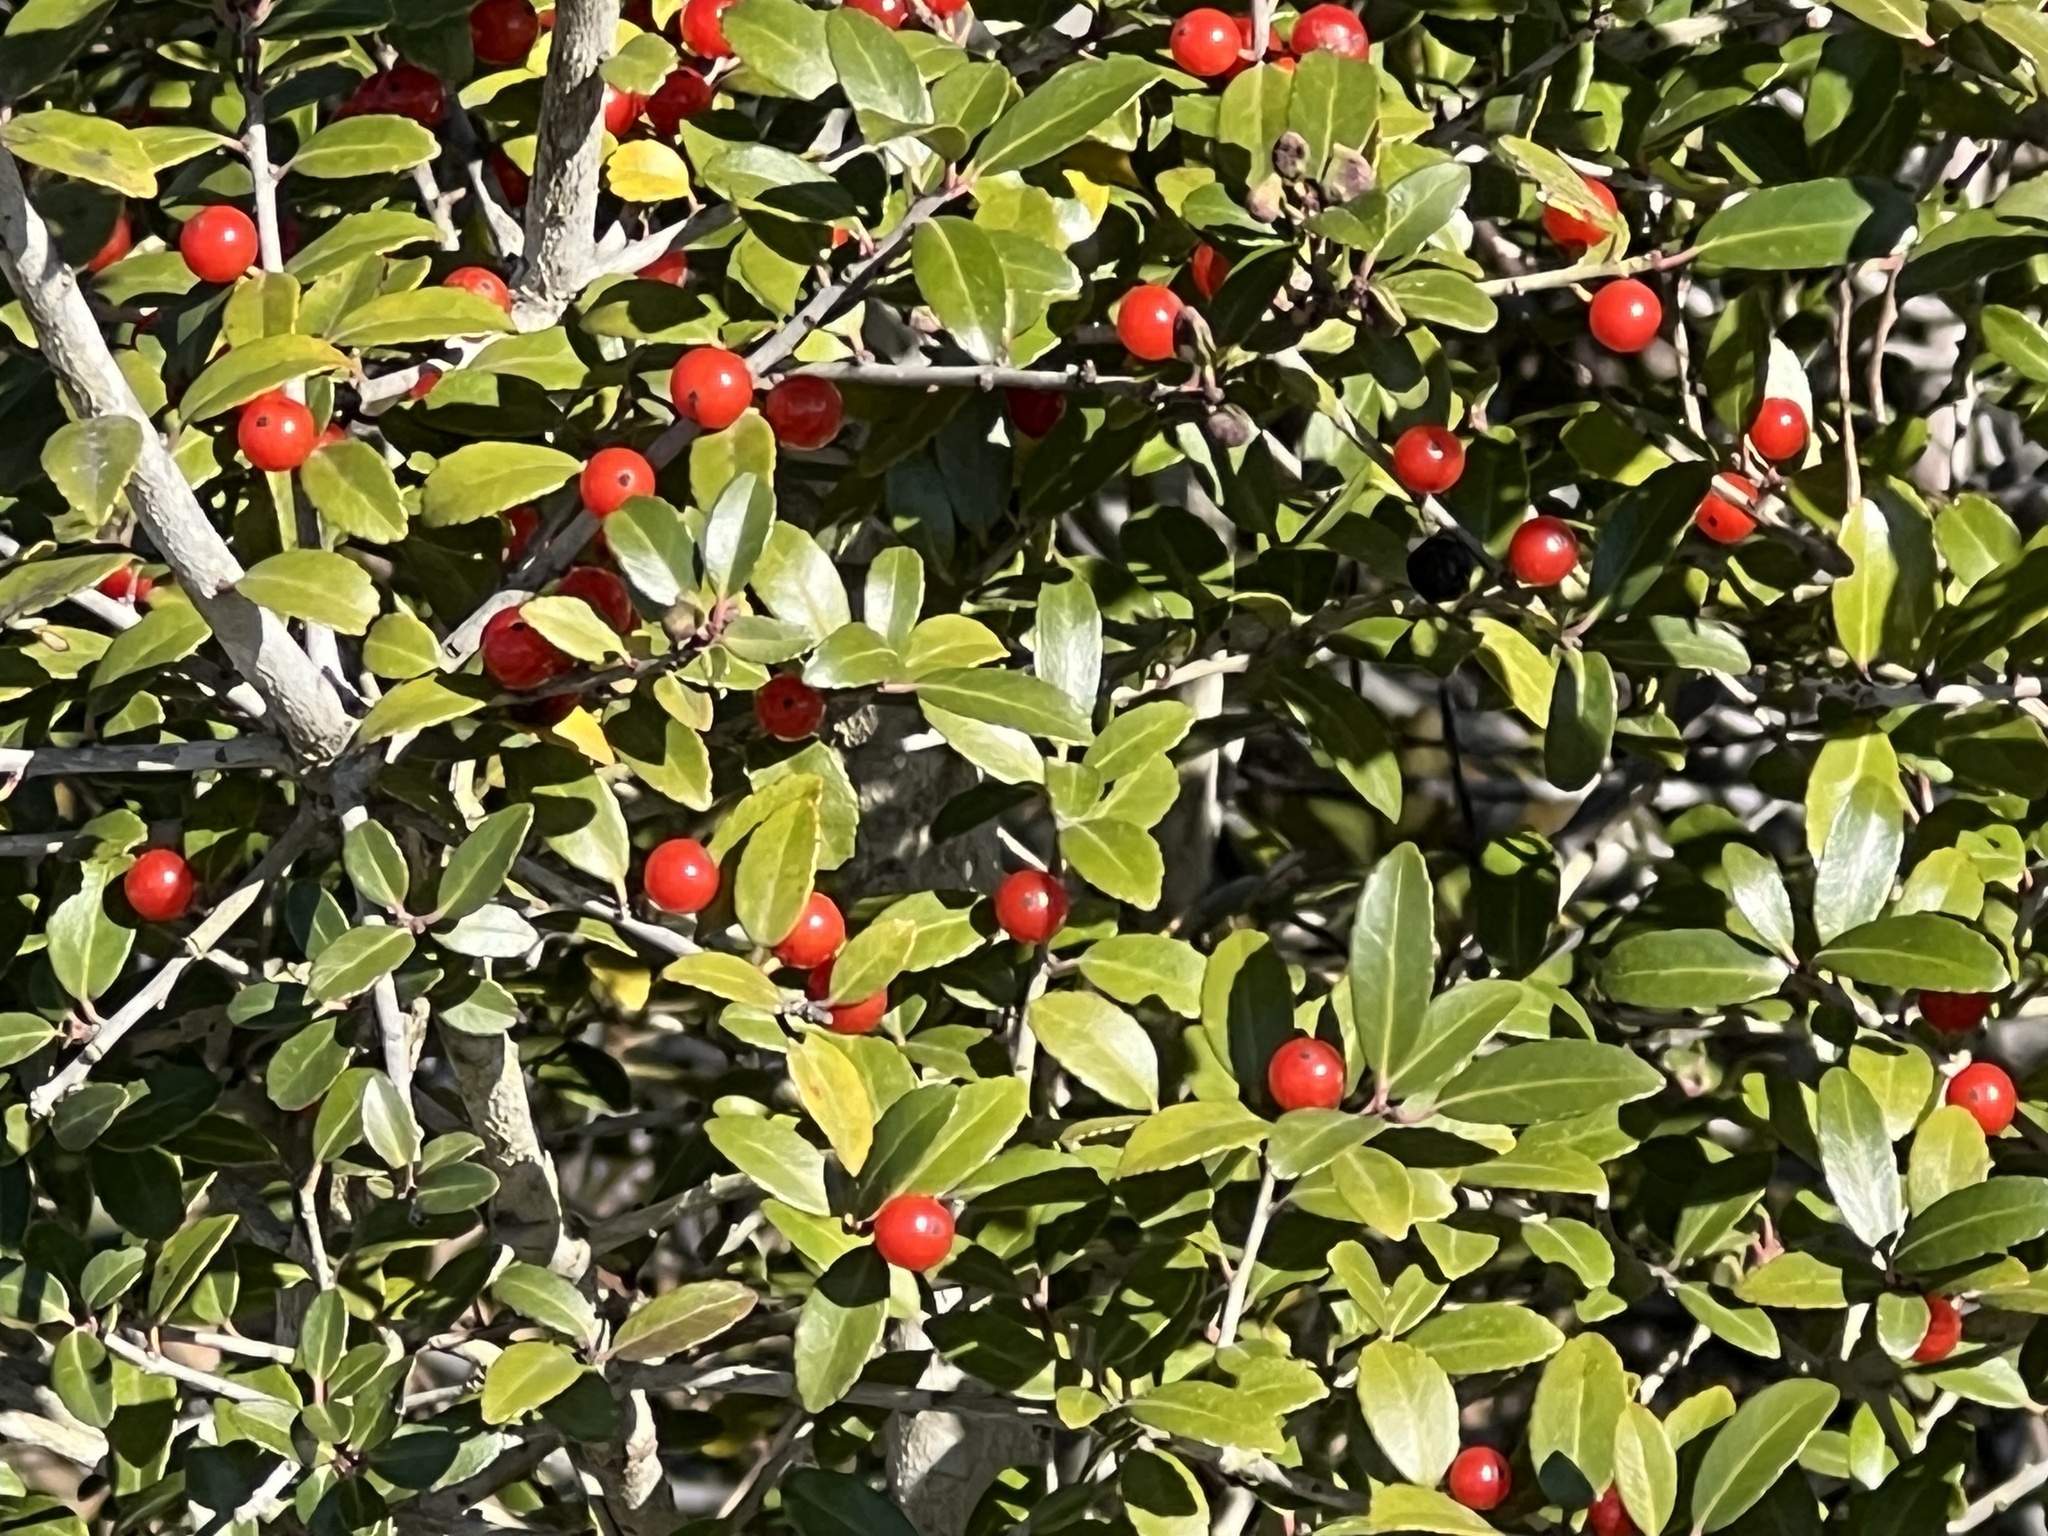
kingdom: Plantae
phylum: Tracheophyta
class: Magnoliopsida
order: Aquifoliales
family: Aquifoliaceae
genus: Ilex
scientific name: Ilex vomitoria
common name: Yaupon holly
